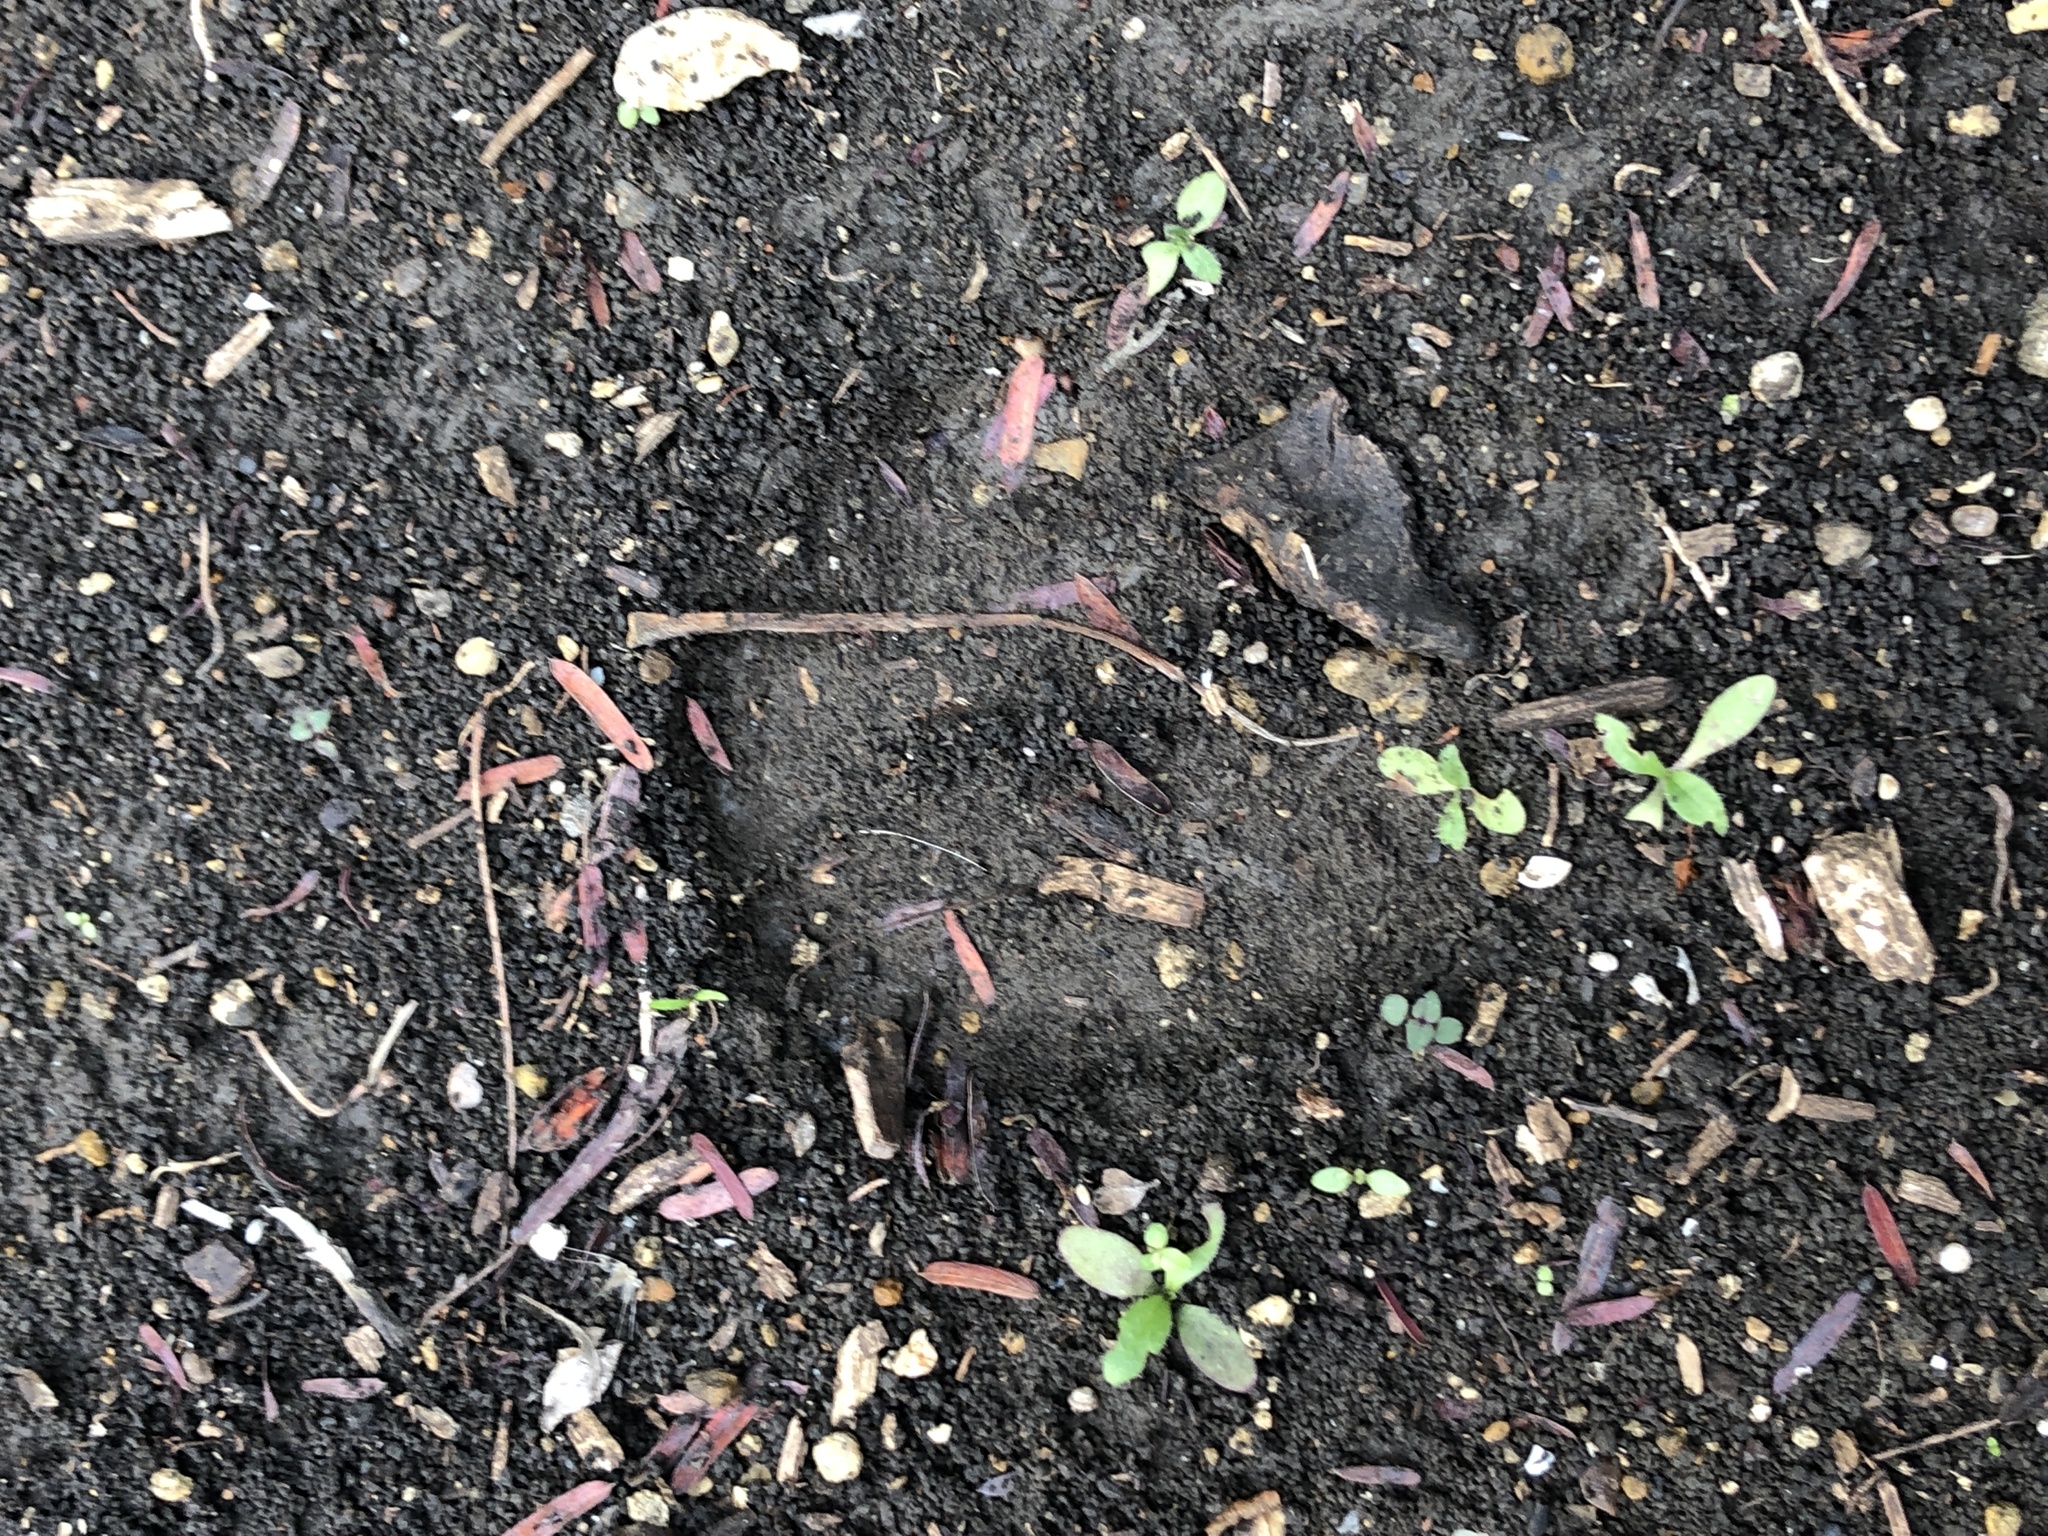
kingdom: Animalia
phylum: Chordata
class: Mammalia
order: Artiodactyla
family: Cervidae
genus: Odocoileus
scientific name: Odocoileus virginianus
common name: White-tailed deer
